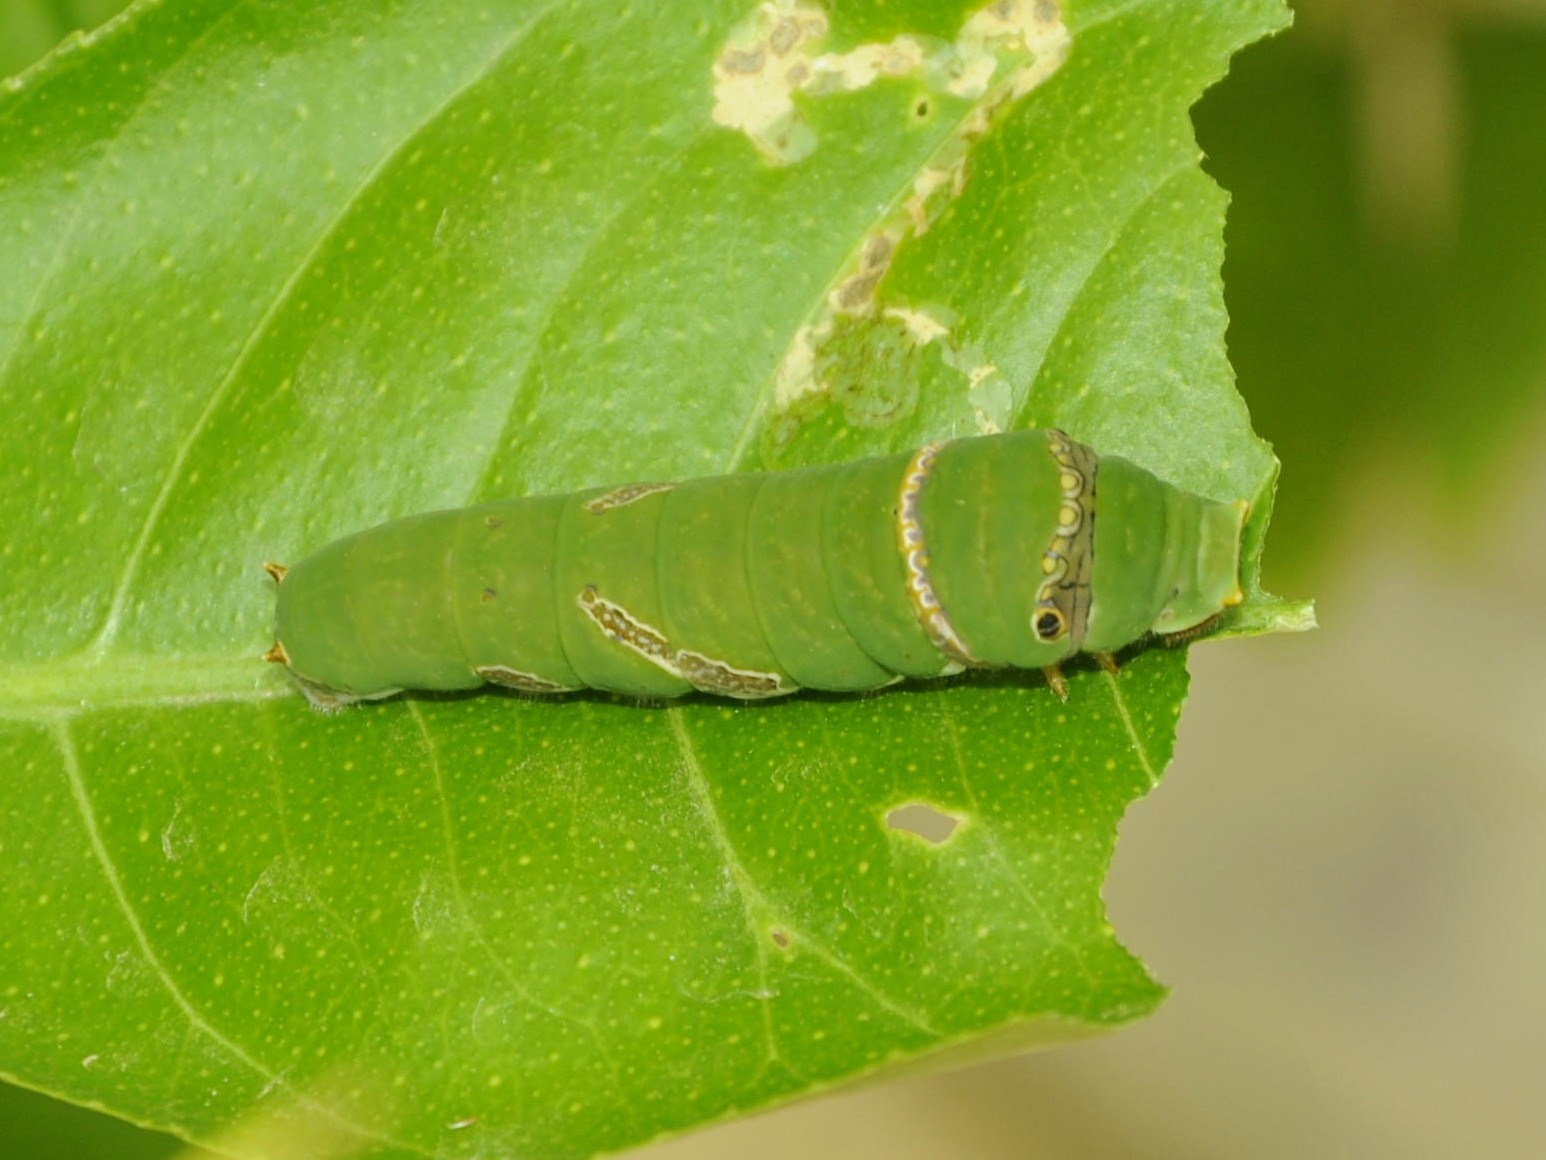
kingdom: Animalia
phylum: Arthropoda
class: Insecta
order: Lepidoptera
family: Papilionidae
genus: Papilio
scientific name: Papilio demoleus
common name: Lime butterfly
